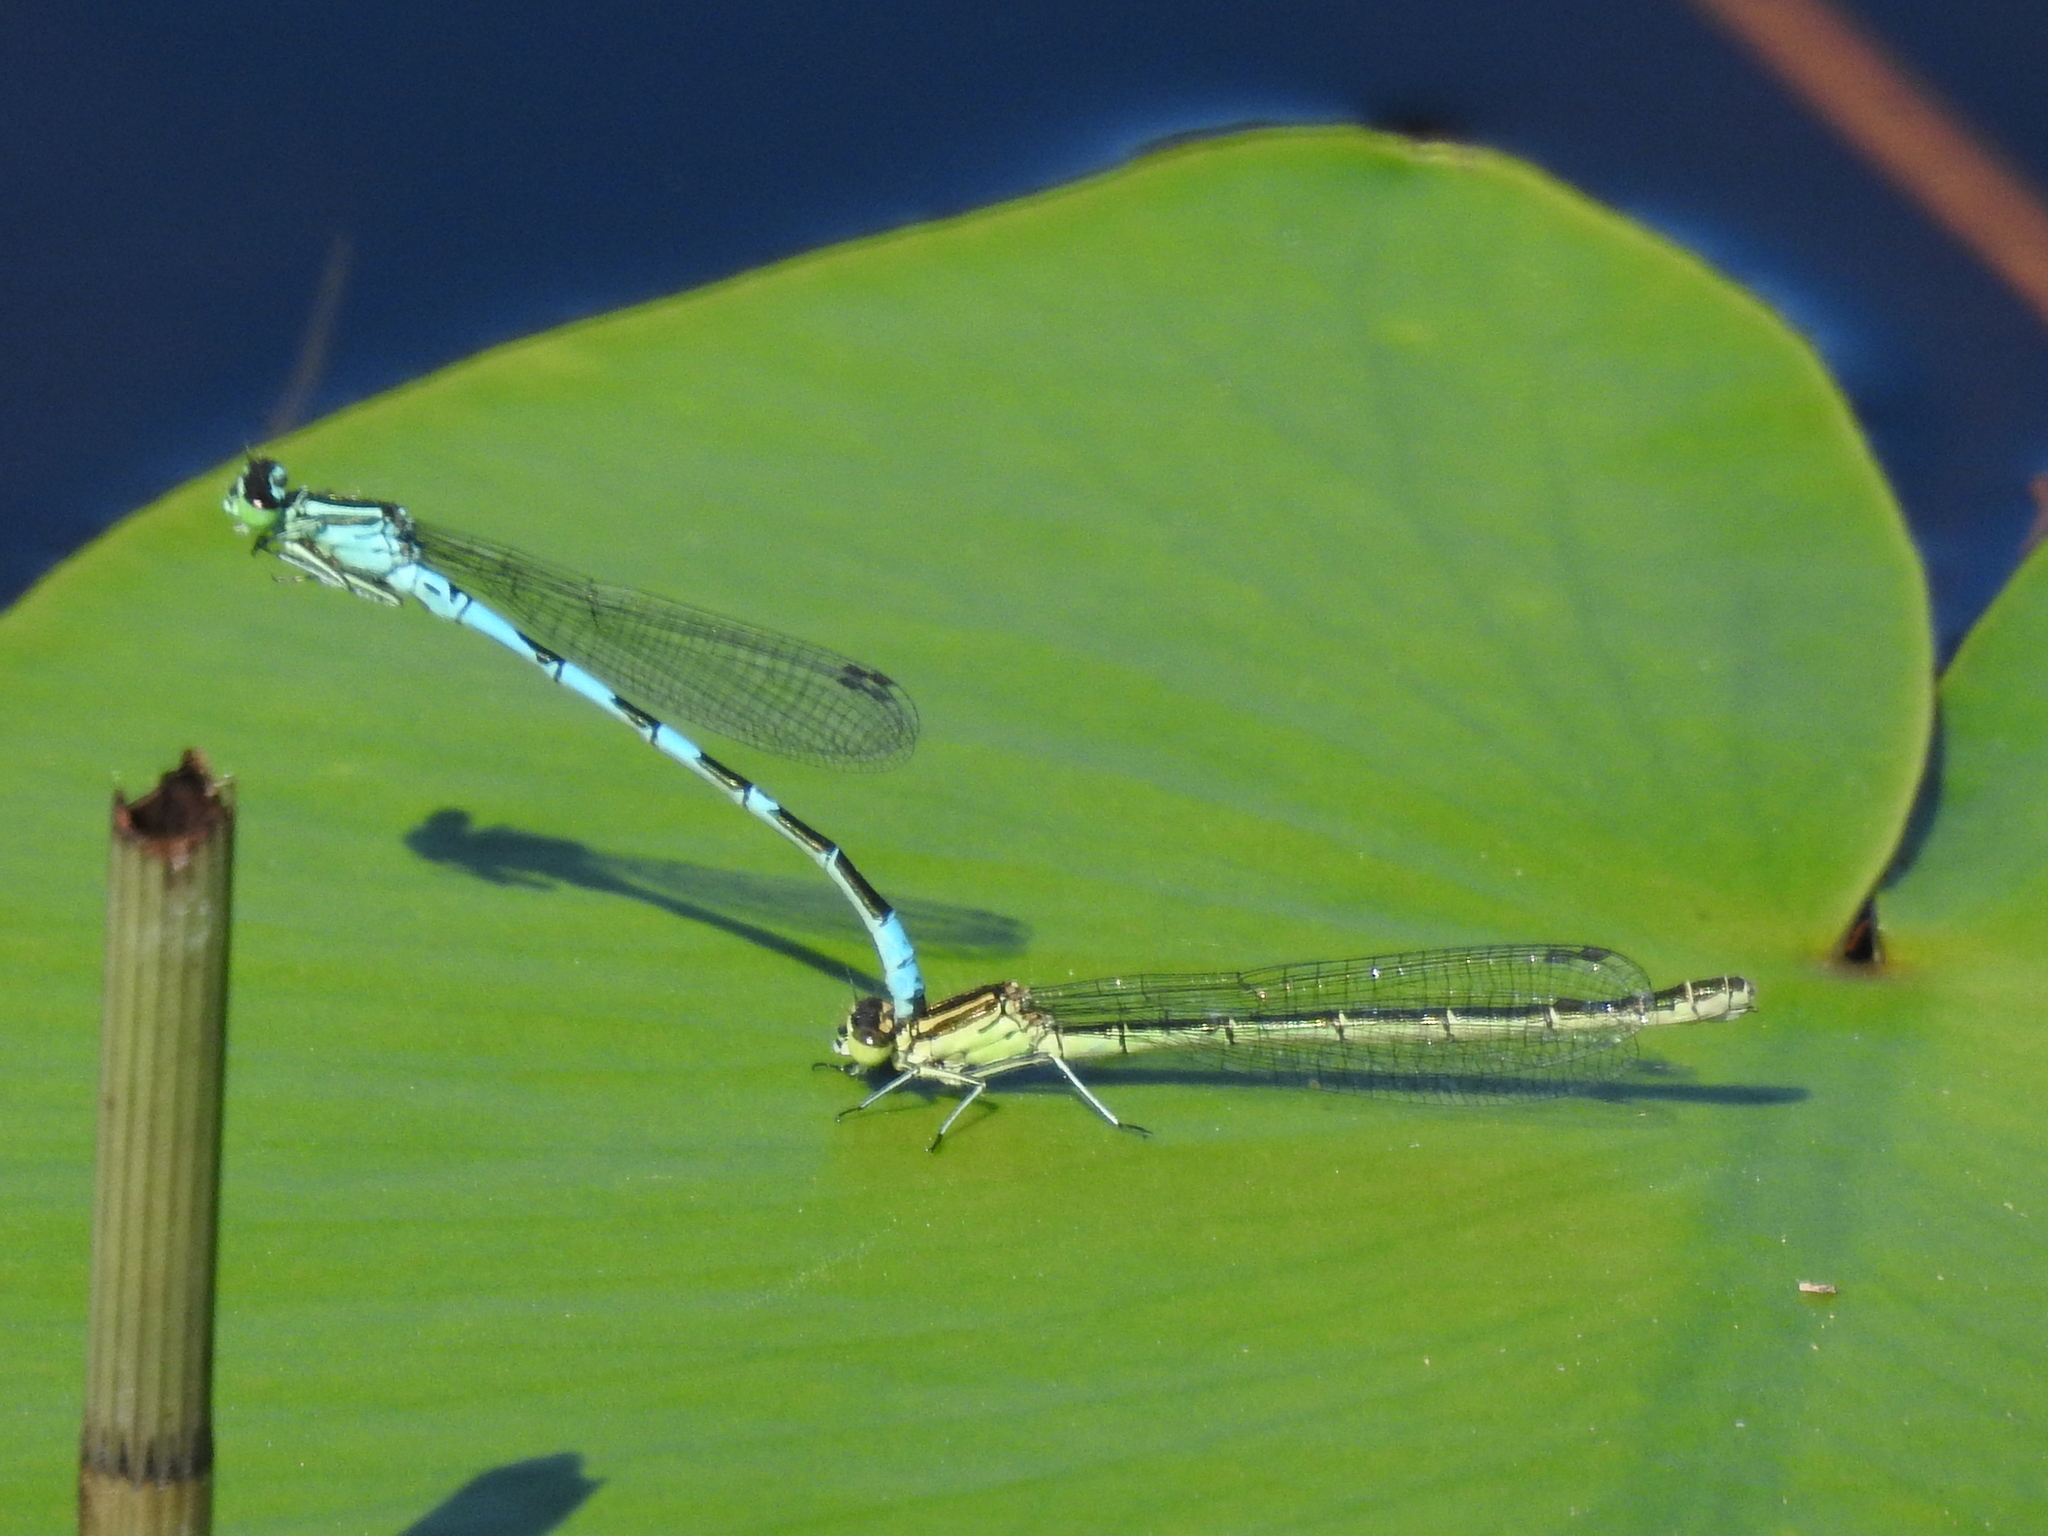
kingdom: Animalia
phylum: Arthropoda
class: Insecta
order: Odonata
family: Coenagrionidae
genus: Coenagrion
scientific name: Coenagrion hastulatum
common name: Spearhead bluet
